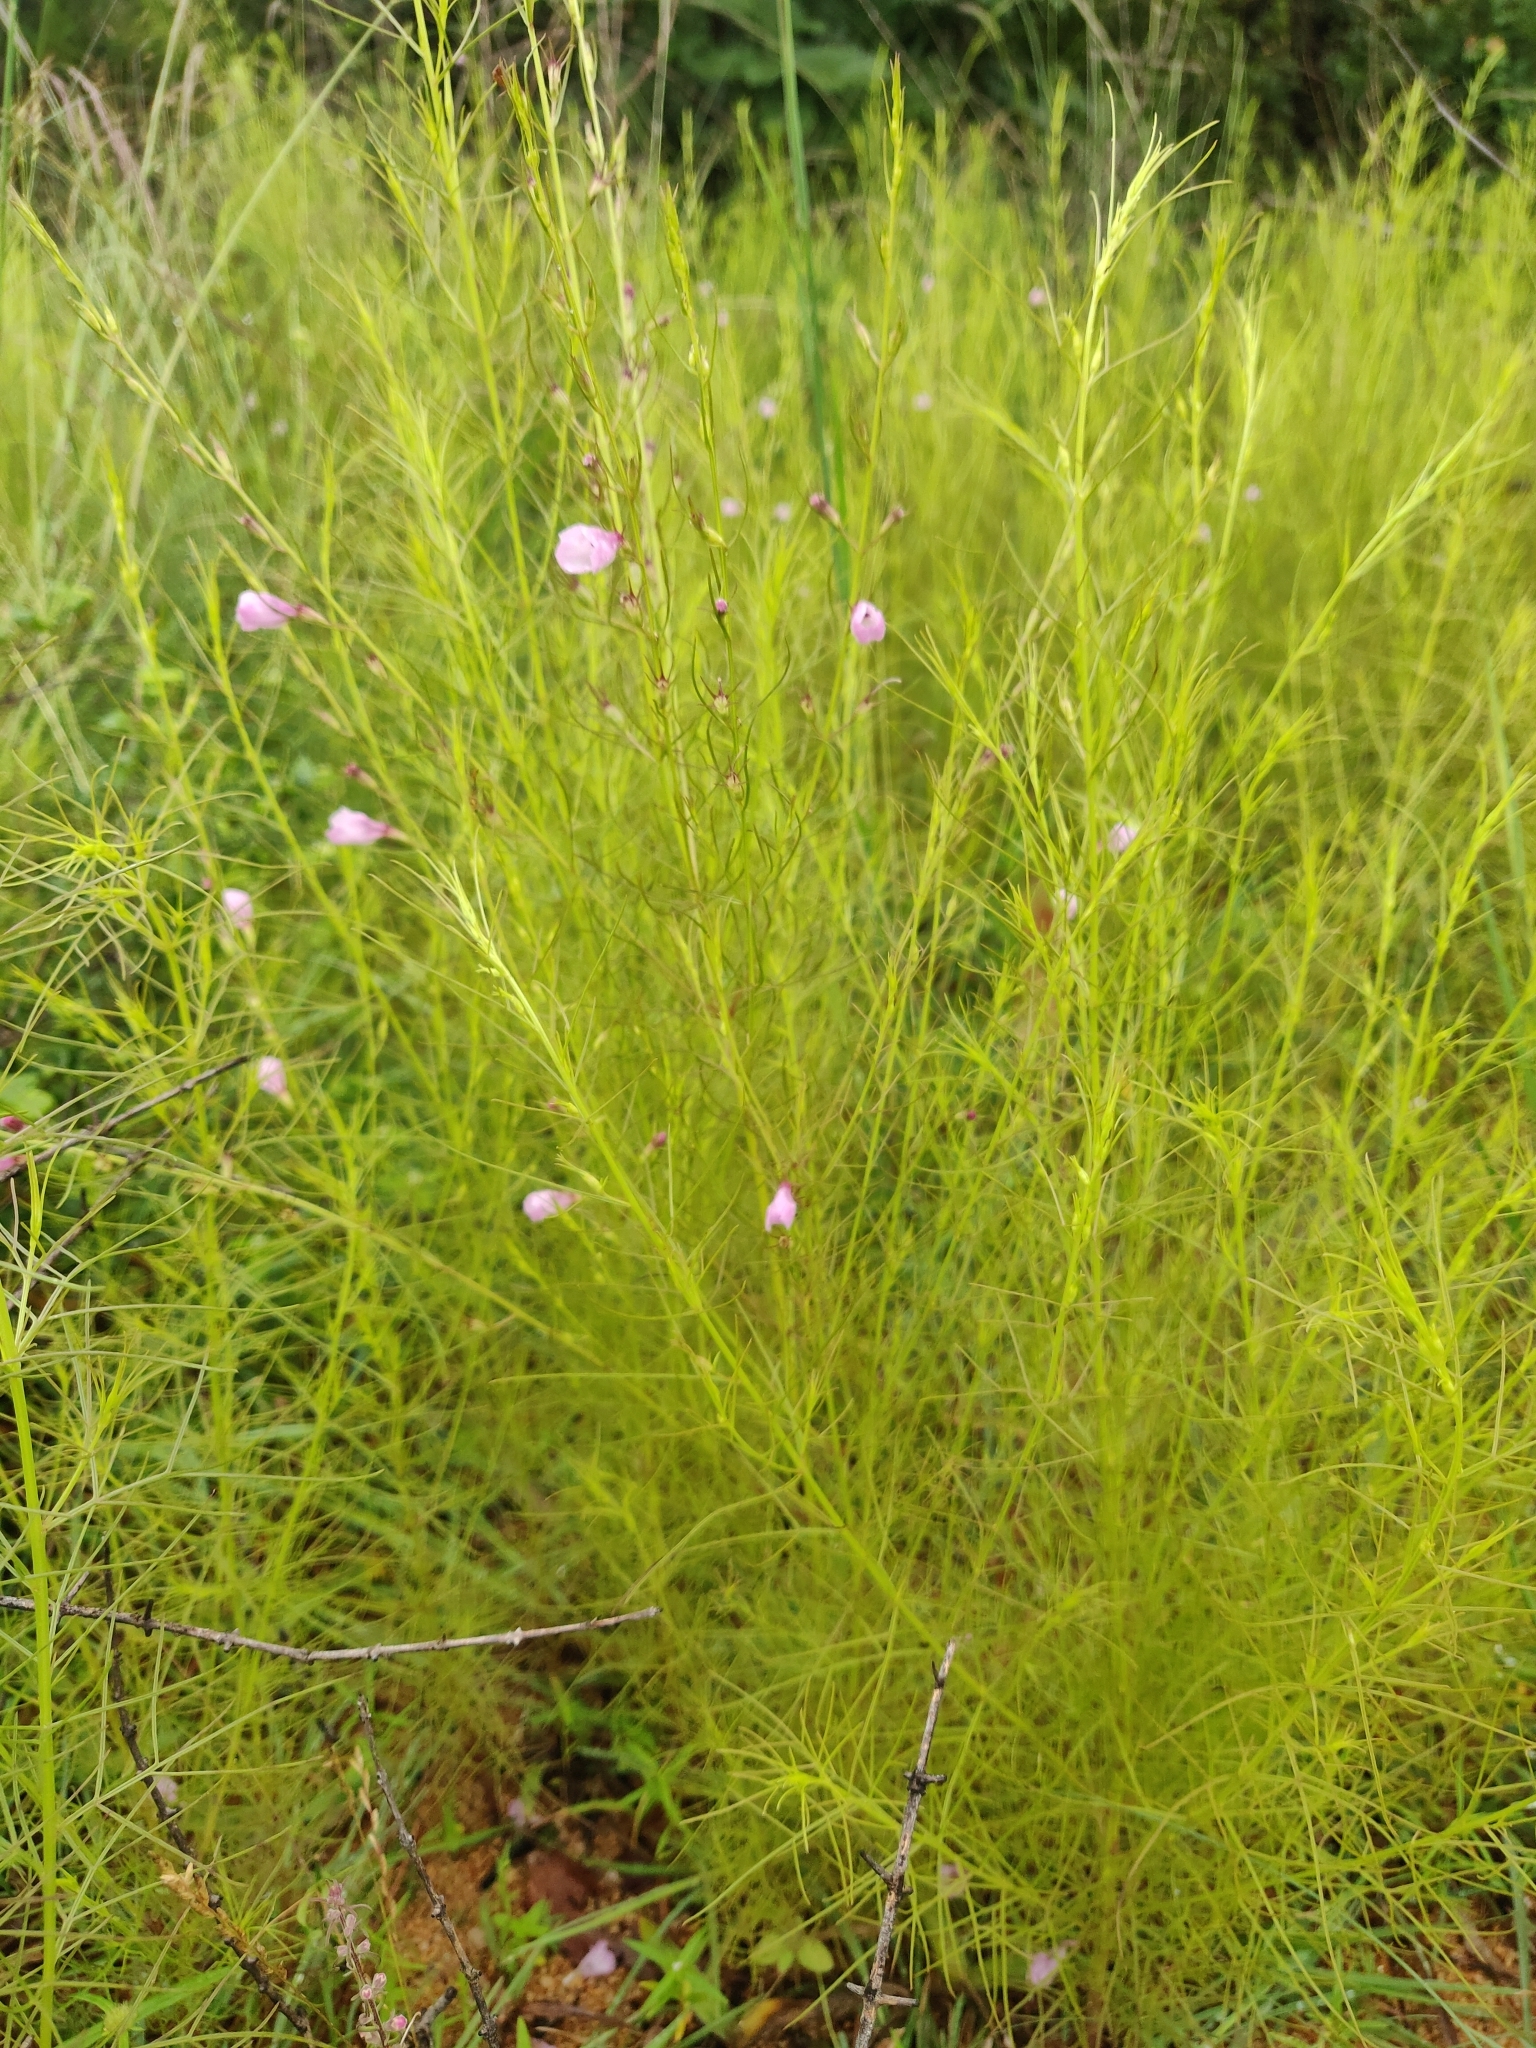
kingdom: Plantae
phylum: Tracheophyta
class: Magnoliopsida
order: Lamiales
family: Orobanchaceae
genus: Parasopubia
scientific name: Parasopubia delphiniifolia
